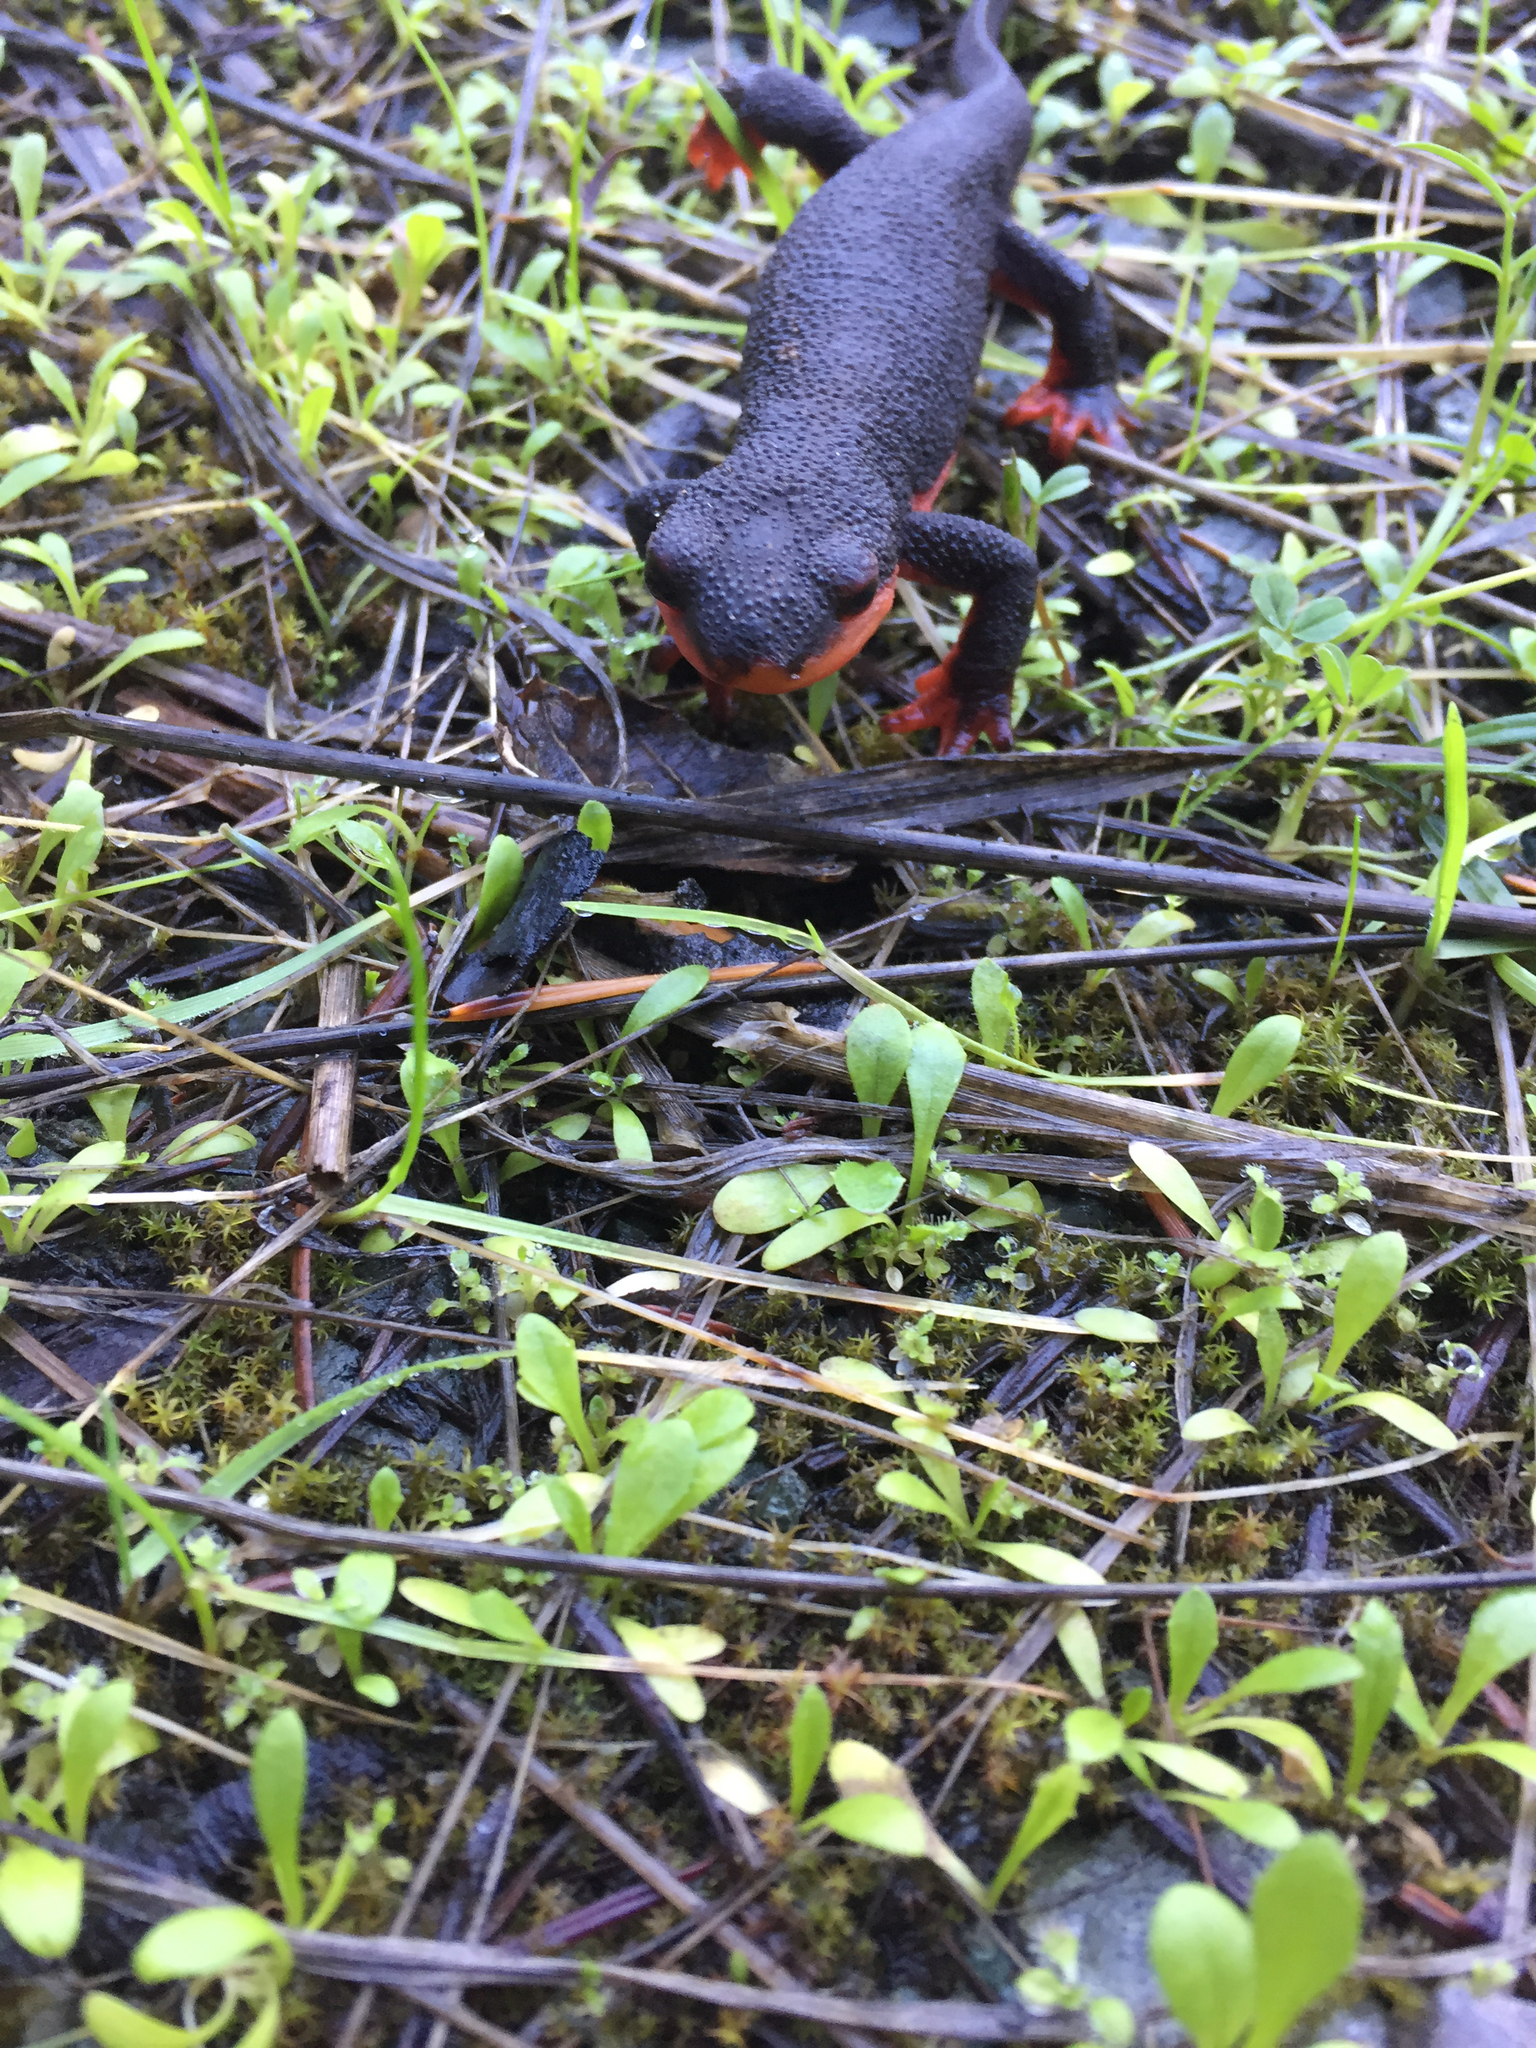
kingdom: Animalia
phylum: Chordata
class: Amphibia
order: Caudata
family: Salamandridae
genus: Taricha
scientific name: Taricha rivularis
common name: Red-bellied newt
